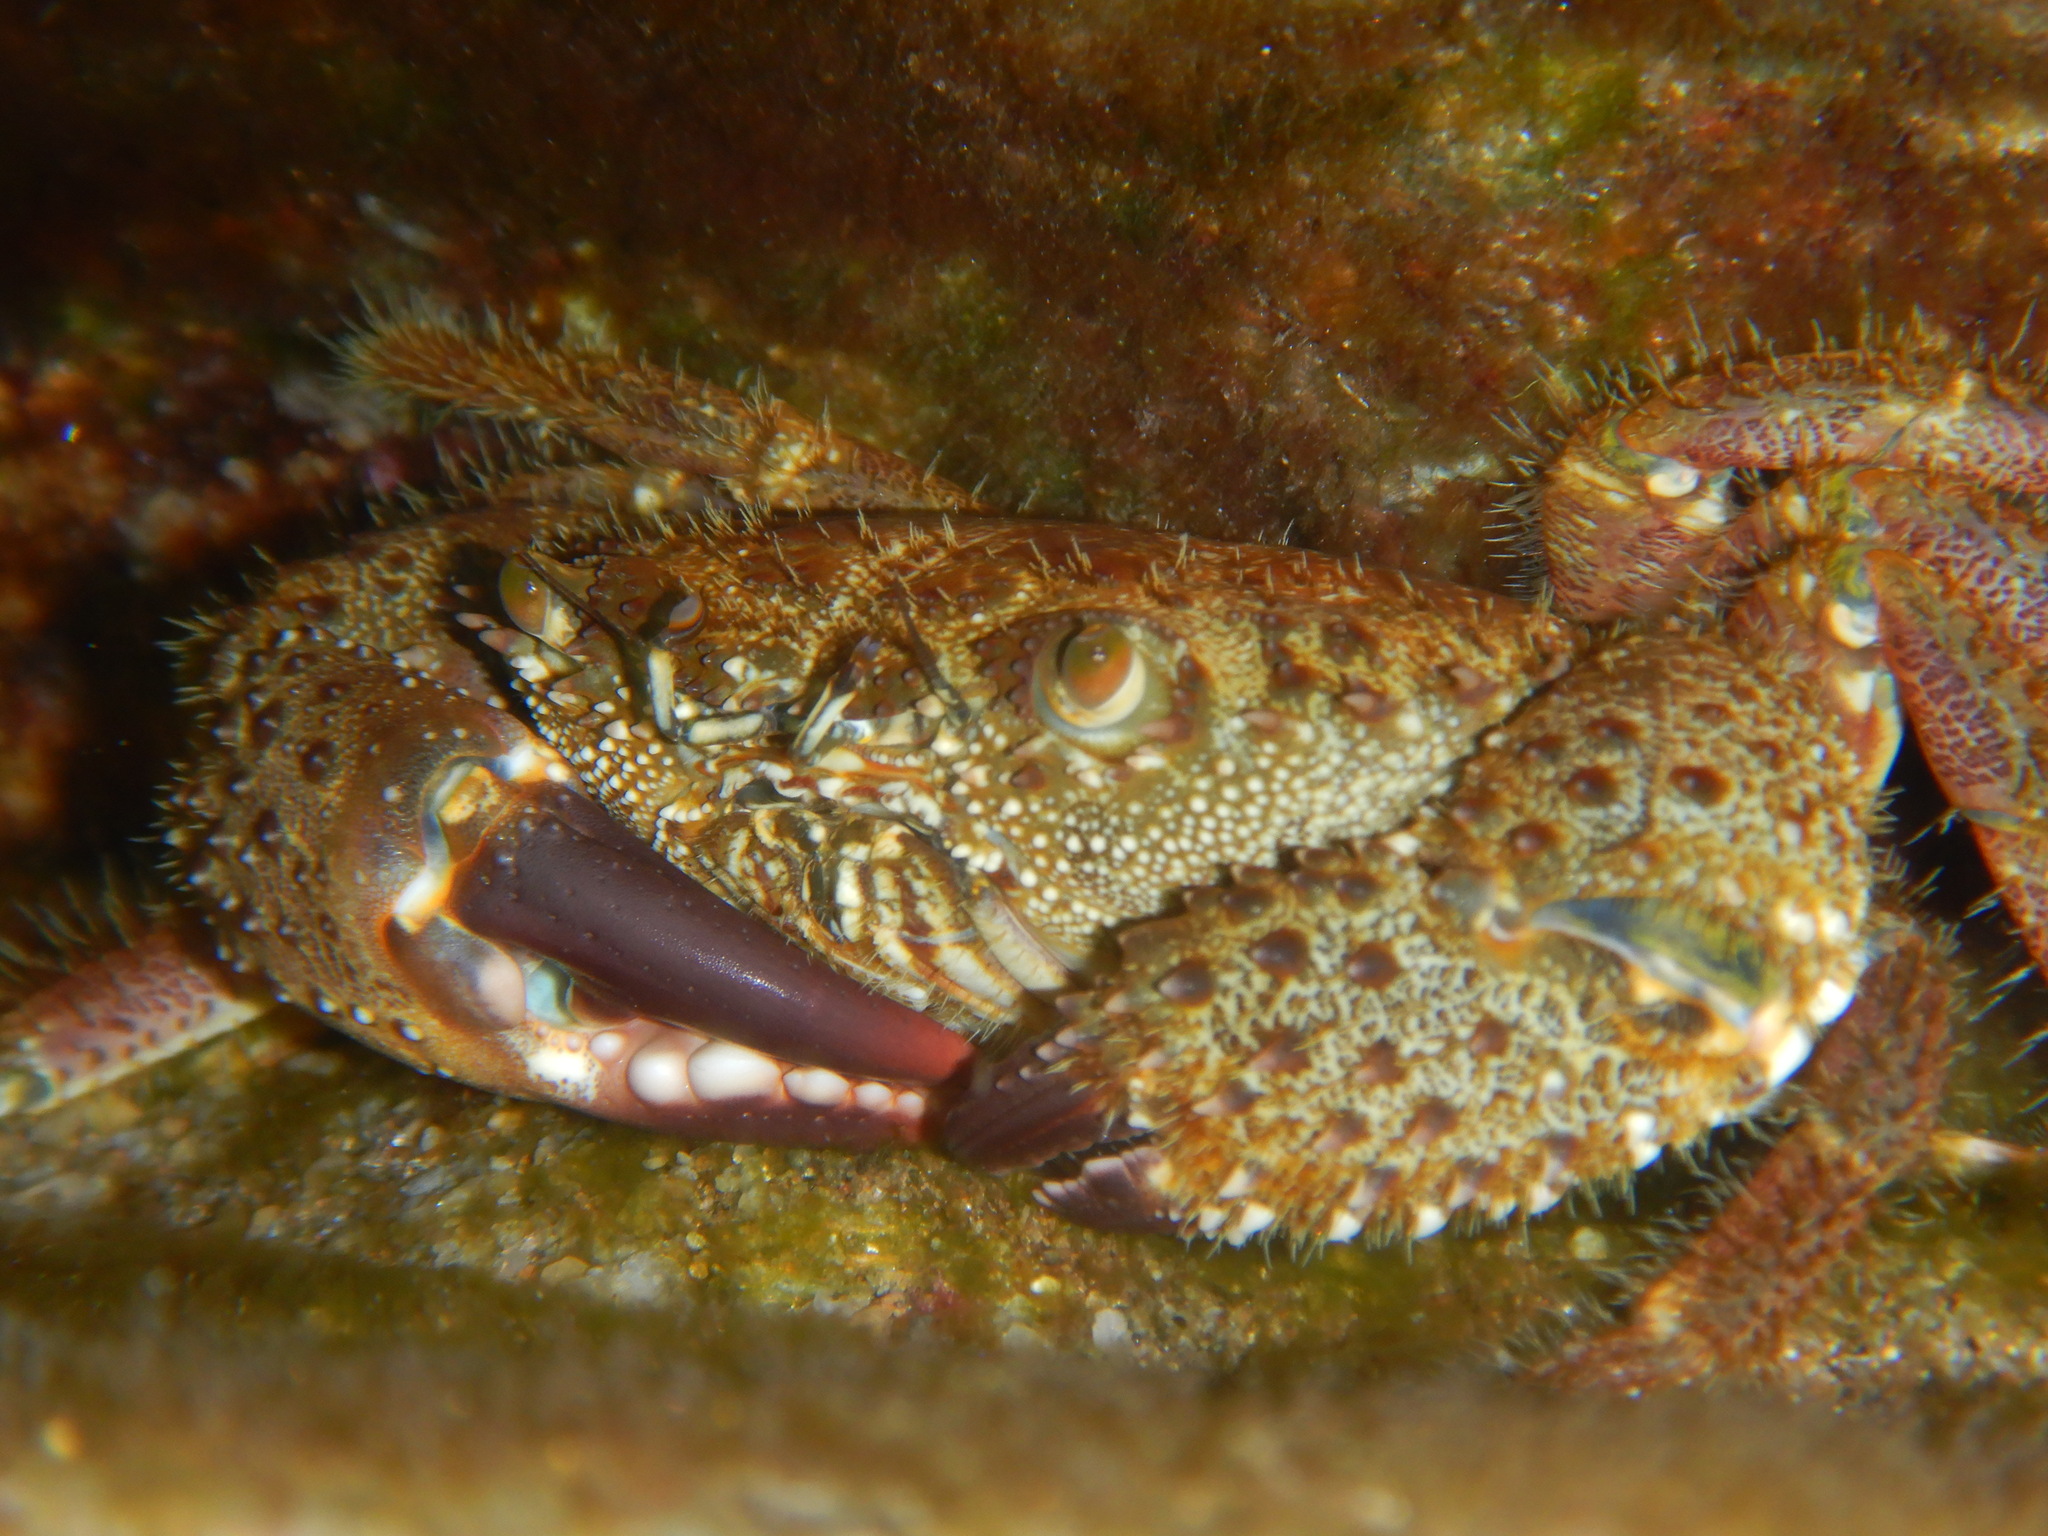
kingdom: Animalia
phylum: Arthropoda
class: Malacostraca
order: Decapoda
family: Eriphiidae
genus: Eriphia
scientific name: Eriphia verrucosa
